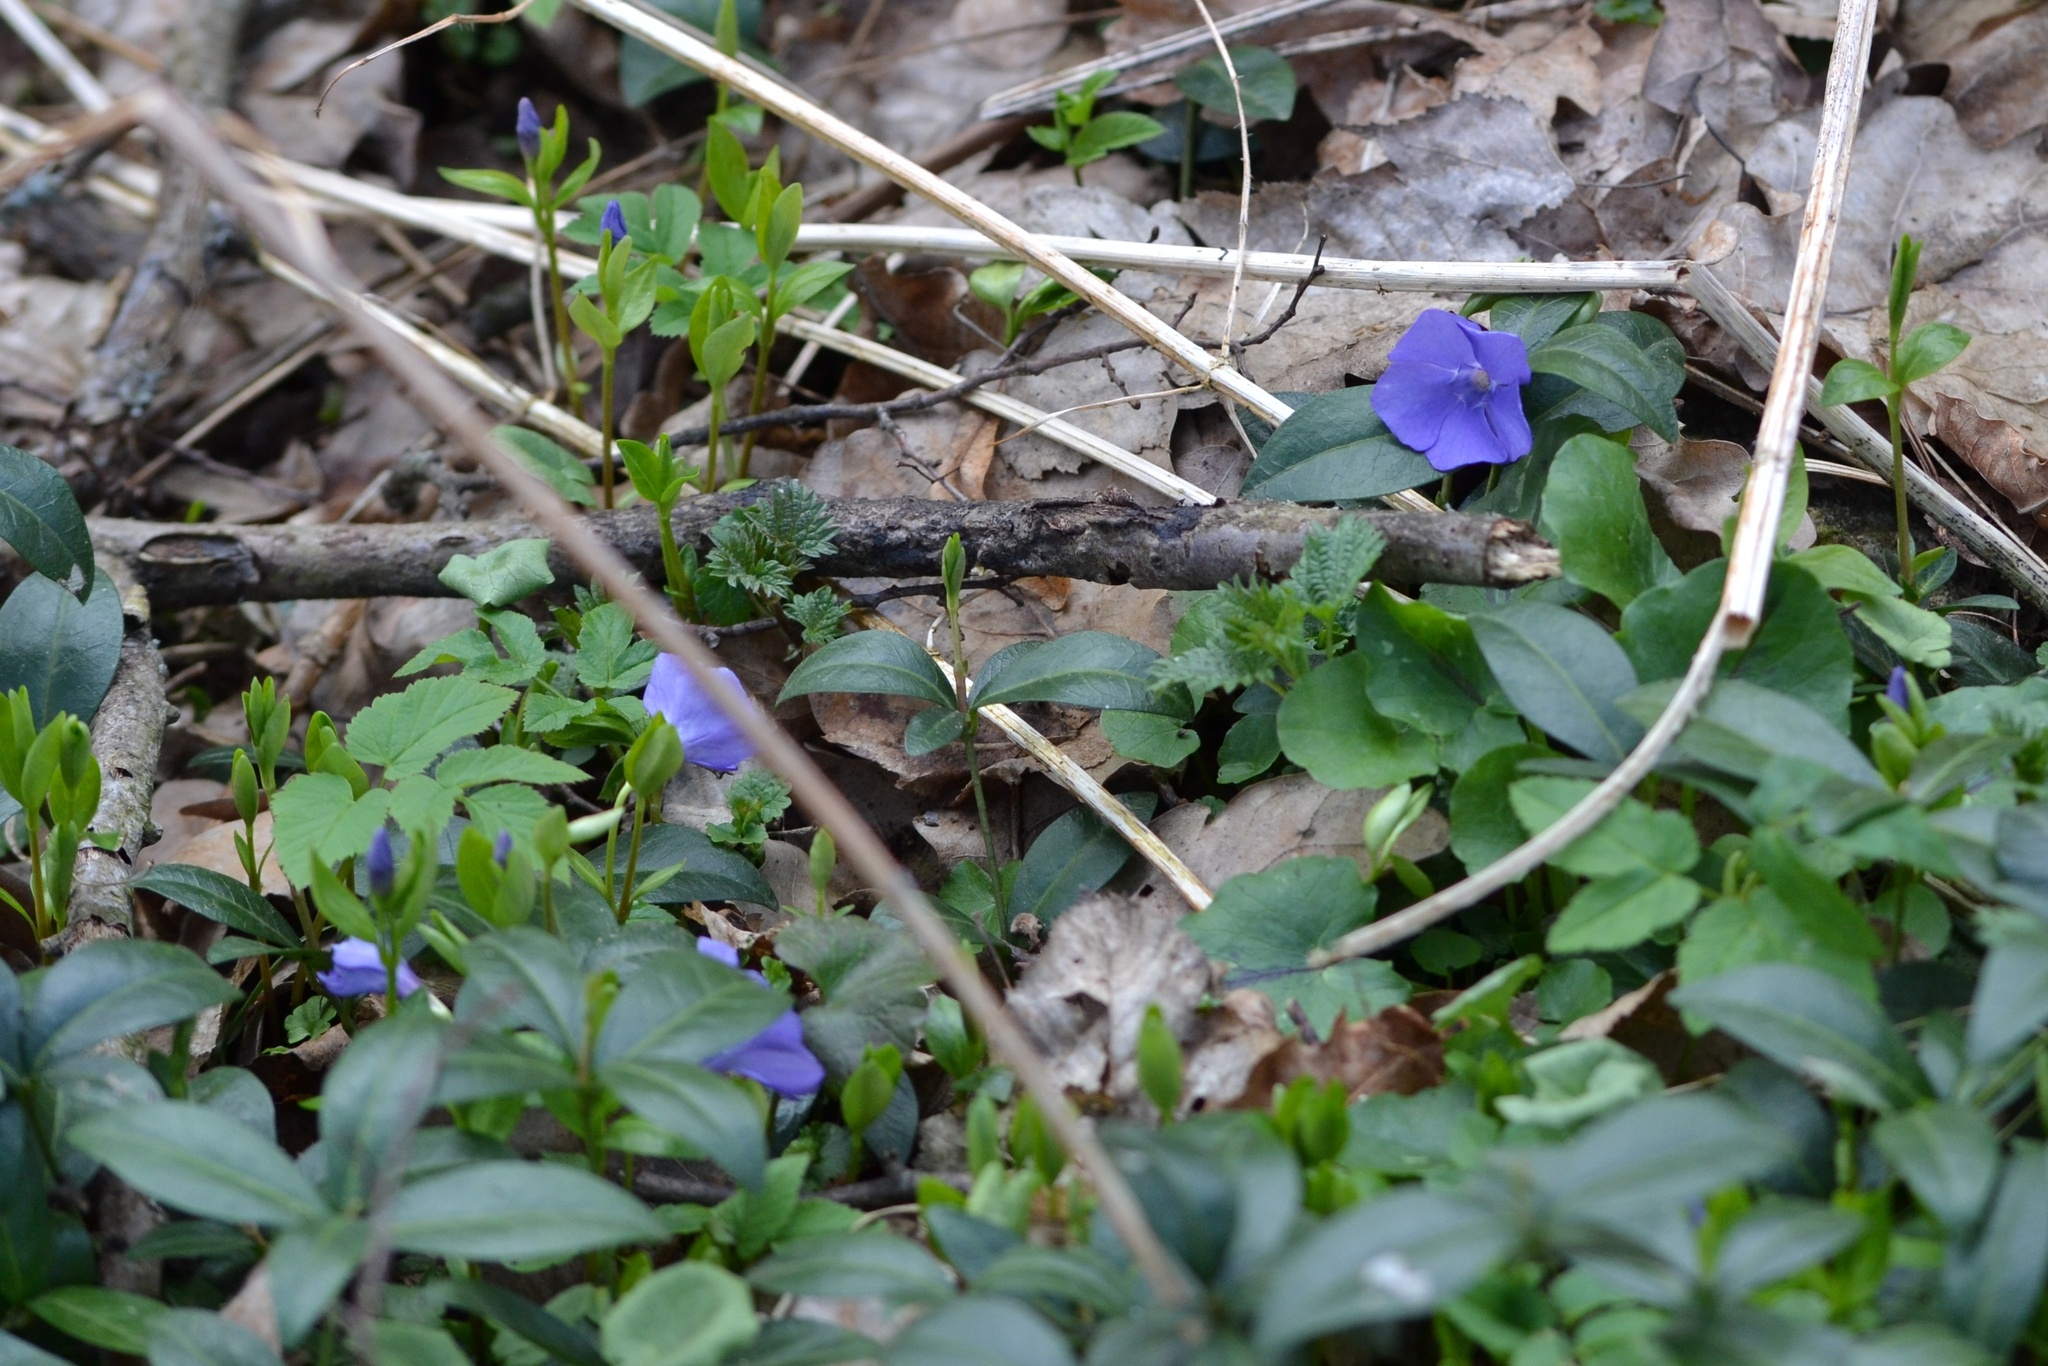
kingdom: Plantae
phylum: Tracheophyta
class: Magnoliopsida
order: Gentianales
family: Apocynaceae
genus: Vinca
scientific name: Vinca minor
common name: Lesser periwinkle
